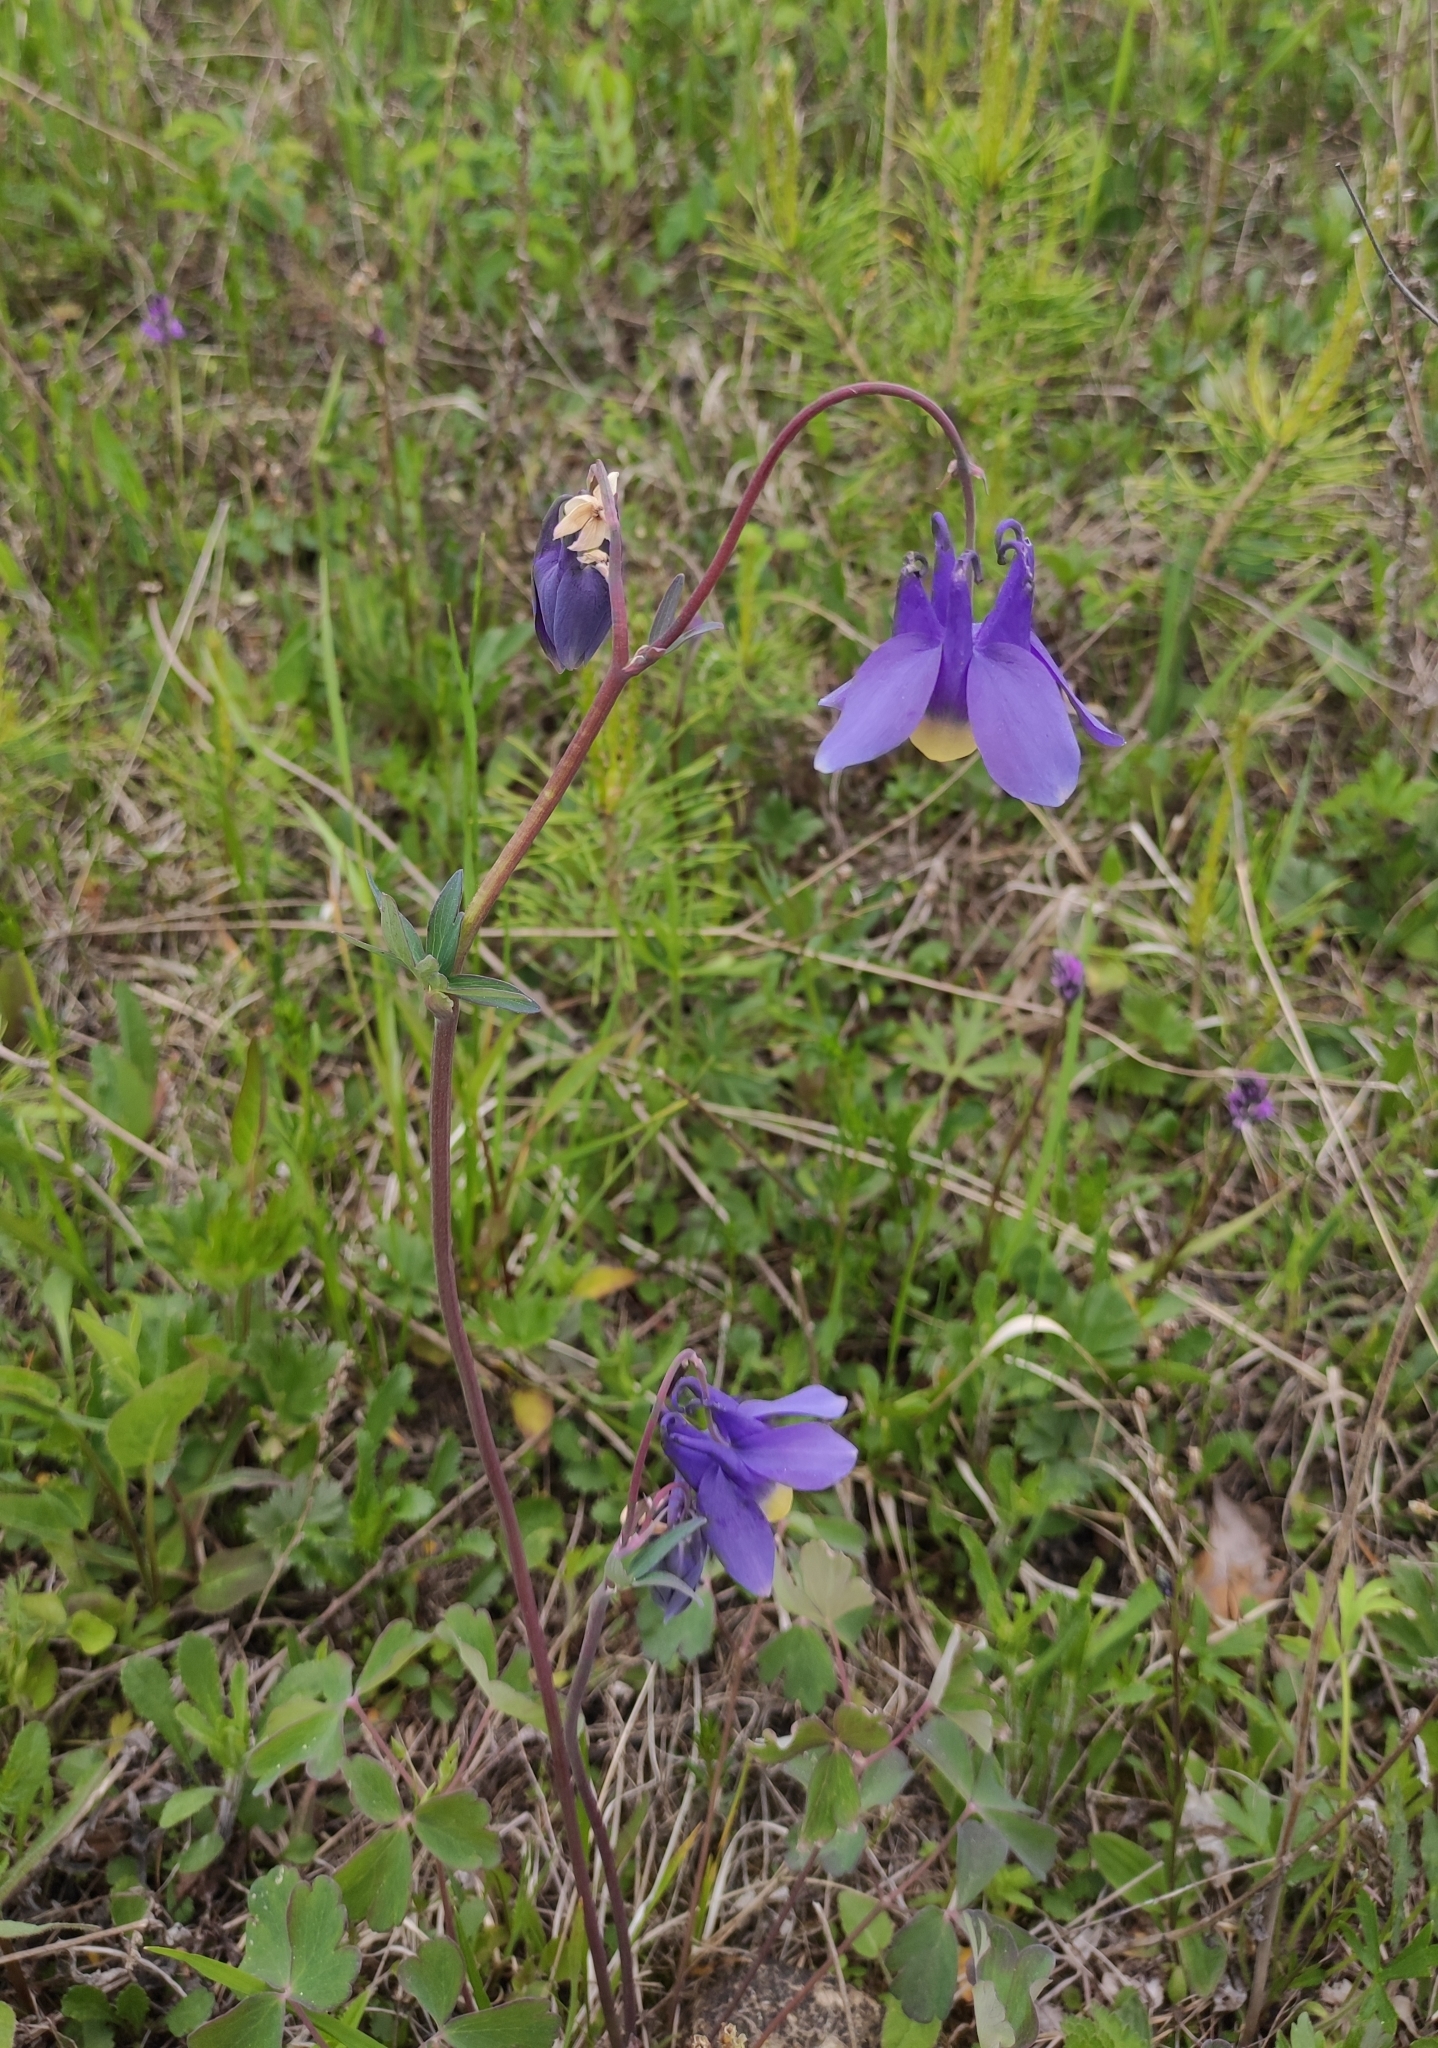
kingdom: Plantae
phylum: Tracheophyta
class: Magnoliopsida
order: Ranunculales
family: Ranunculaceae
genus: Aquilegia
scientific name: Aquilegia sibirica
